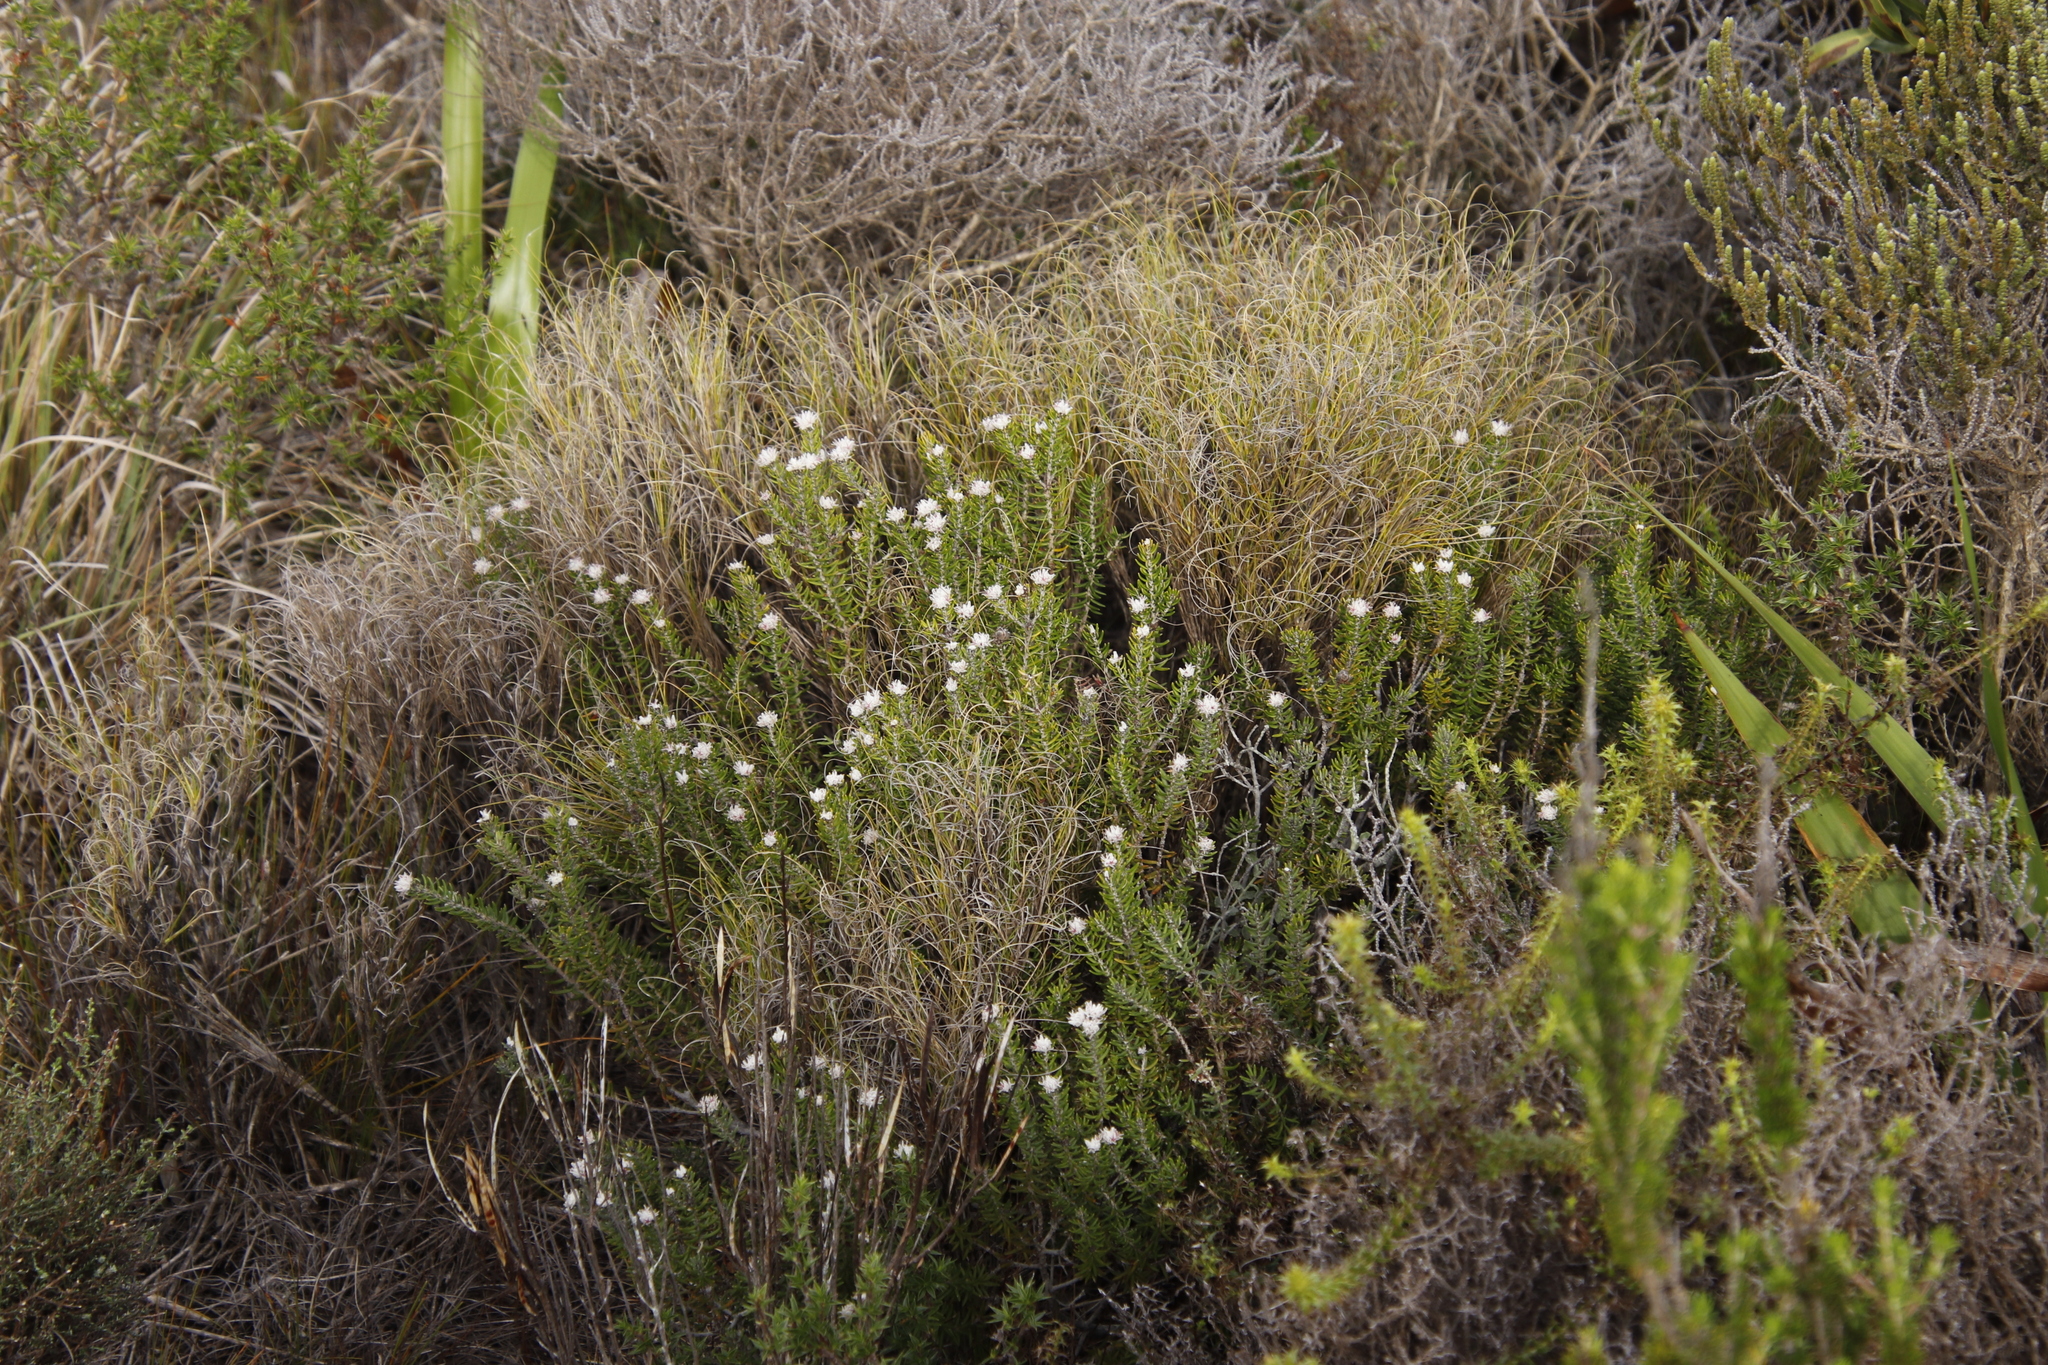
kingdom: Plantae
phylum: Tracheophyta
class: Magnoliopsida
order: Rosales
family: Rhamnaceae
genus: Trichocephalus
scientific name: Trichocephalus stipularis
